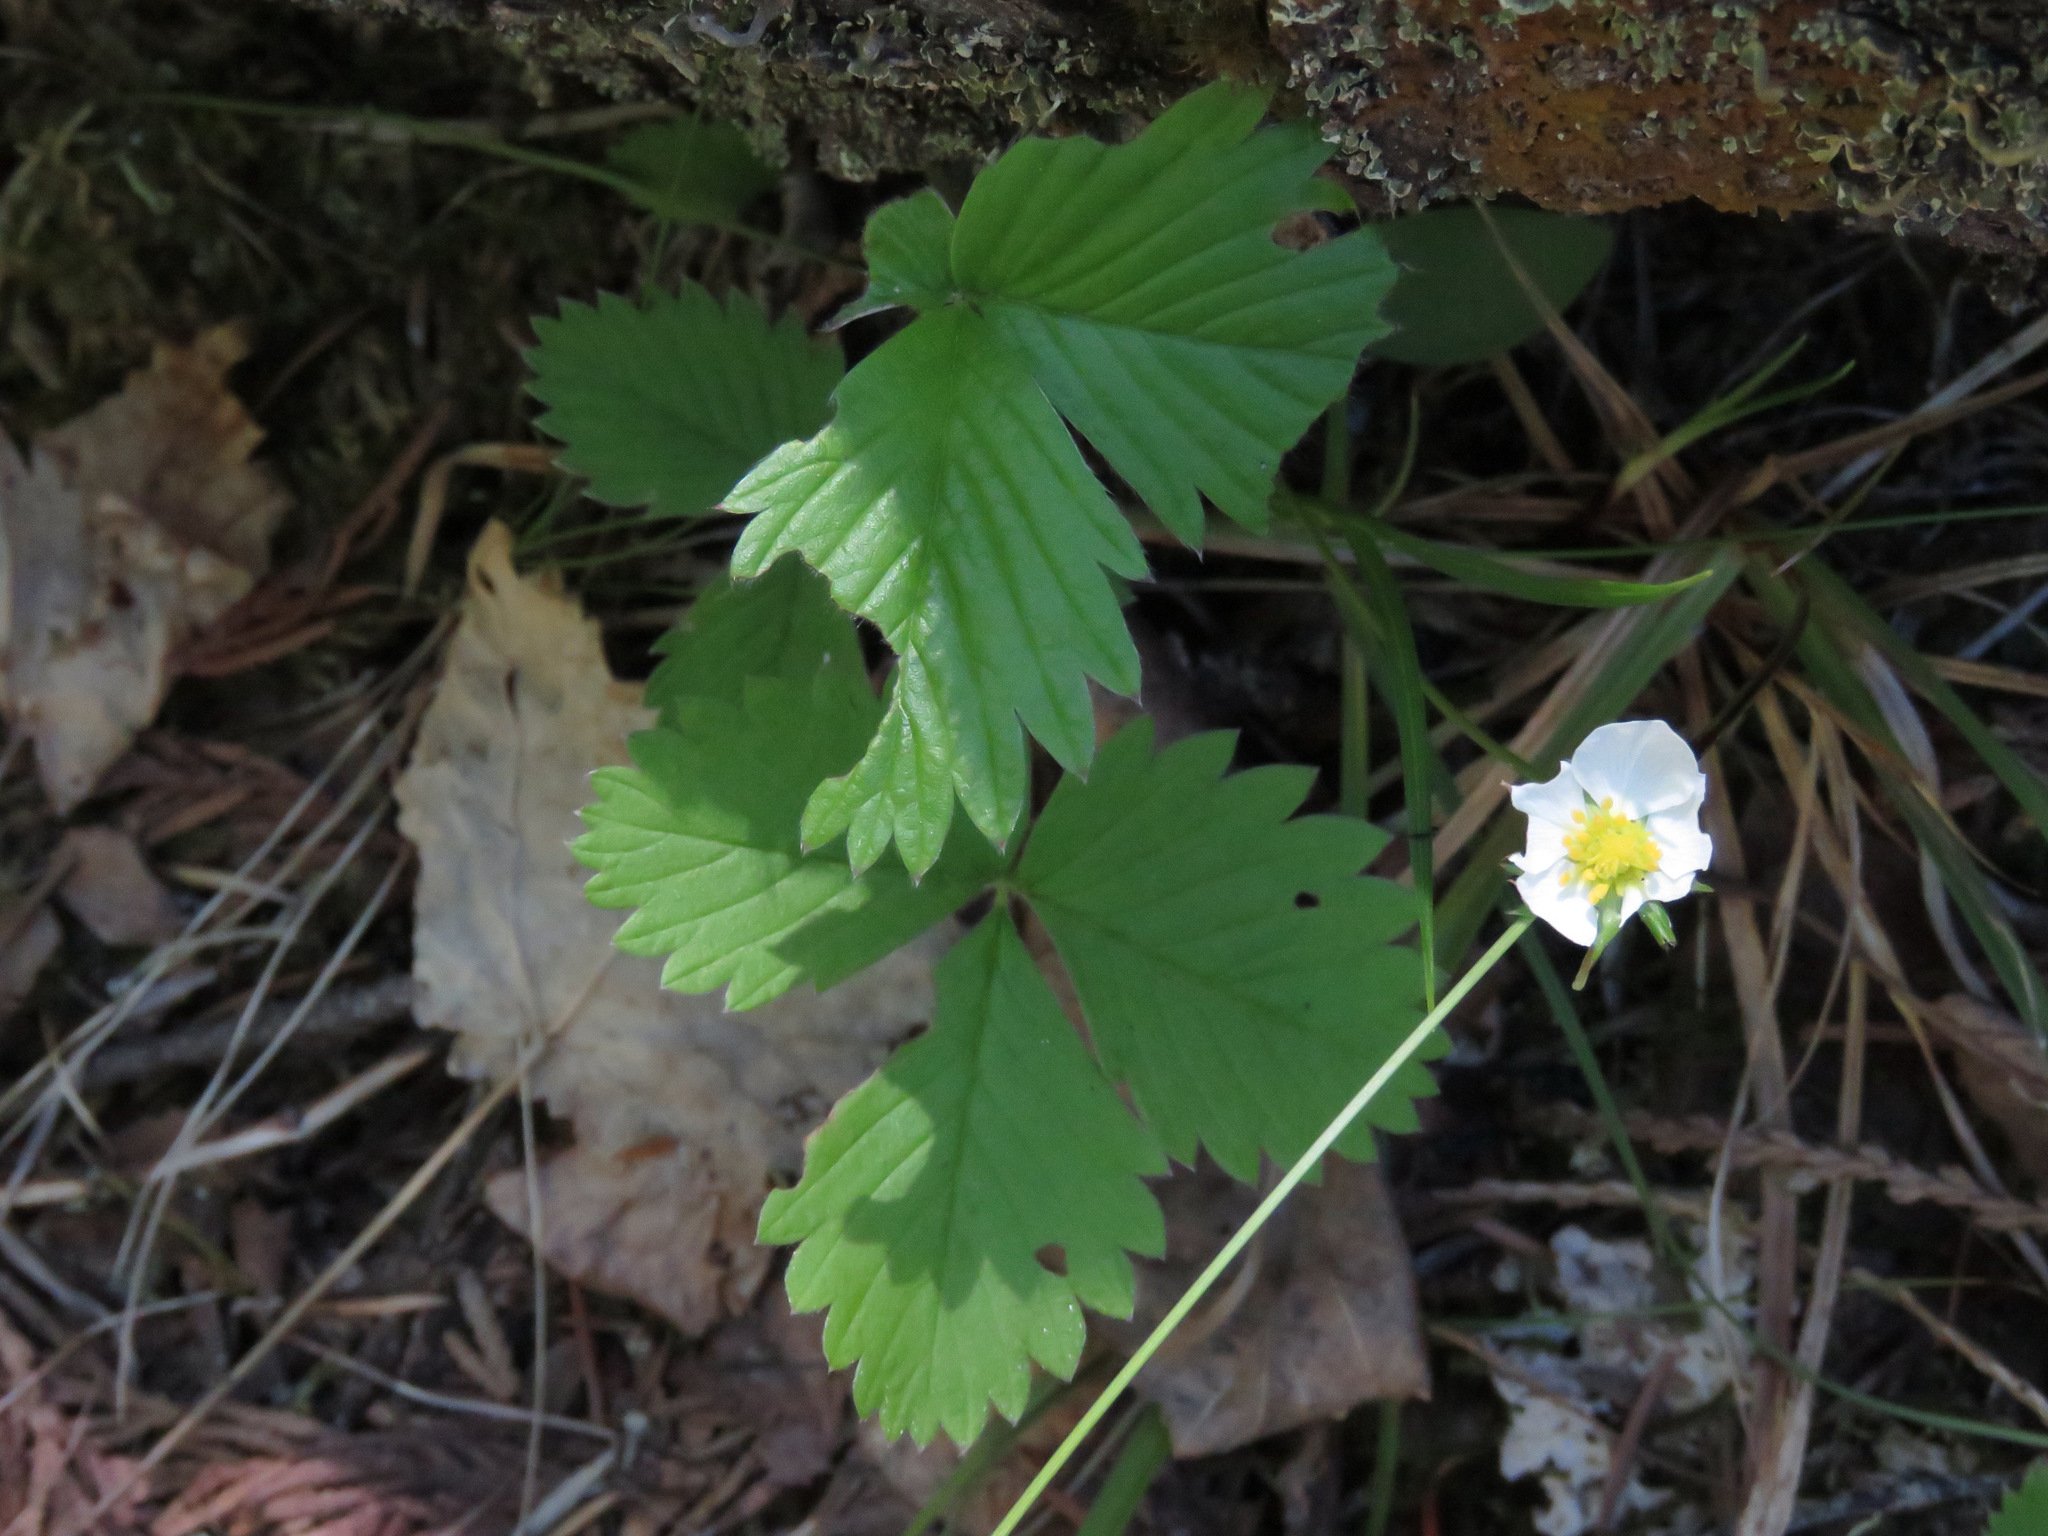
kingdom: Plantae
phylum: Tracheophyta
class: Magnoliopsida
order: Rosales
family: Rosaceae
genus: Fragaria
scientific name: Fragaria vesca
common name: Wild strawberry
